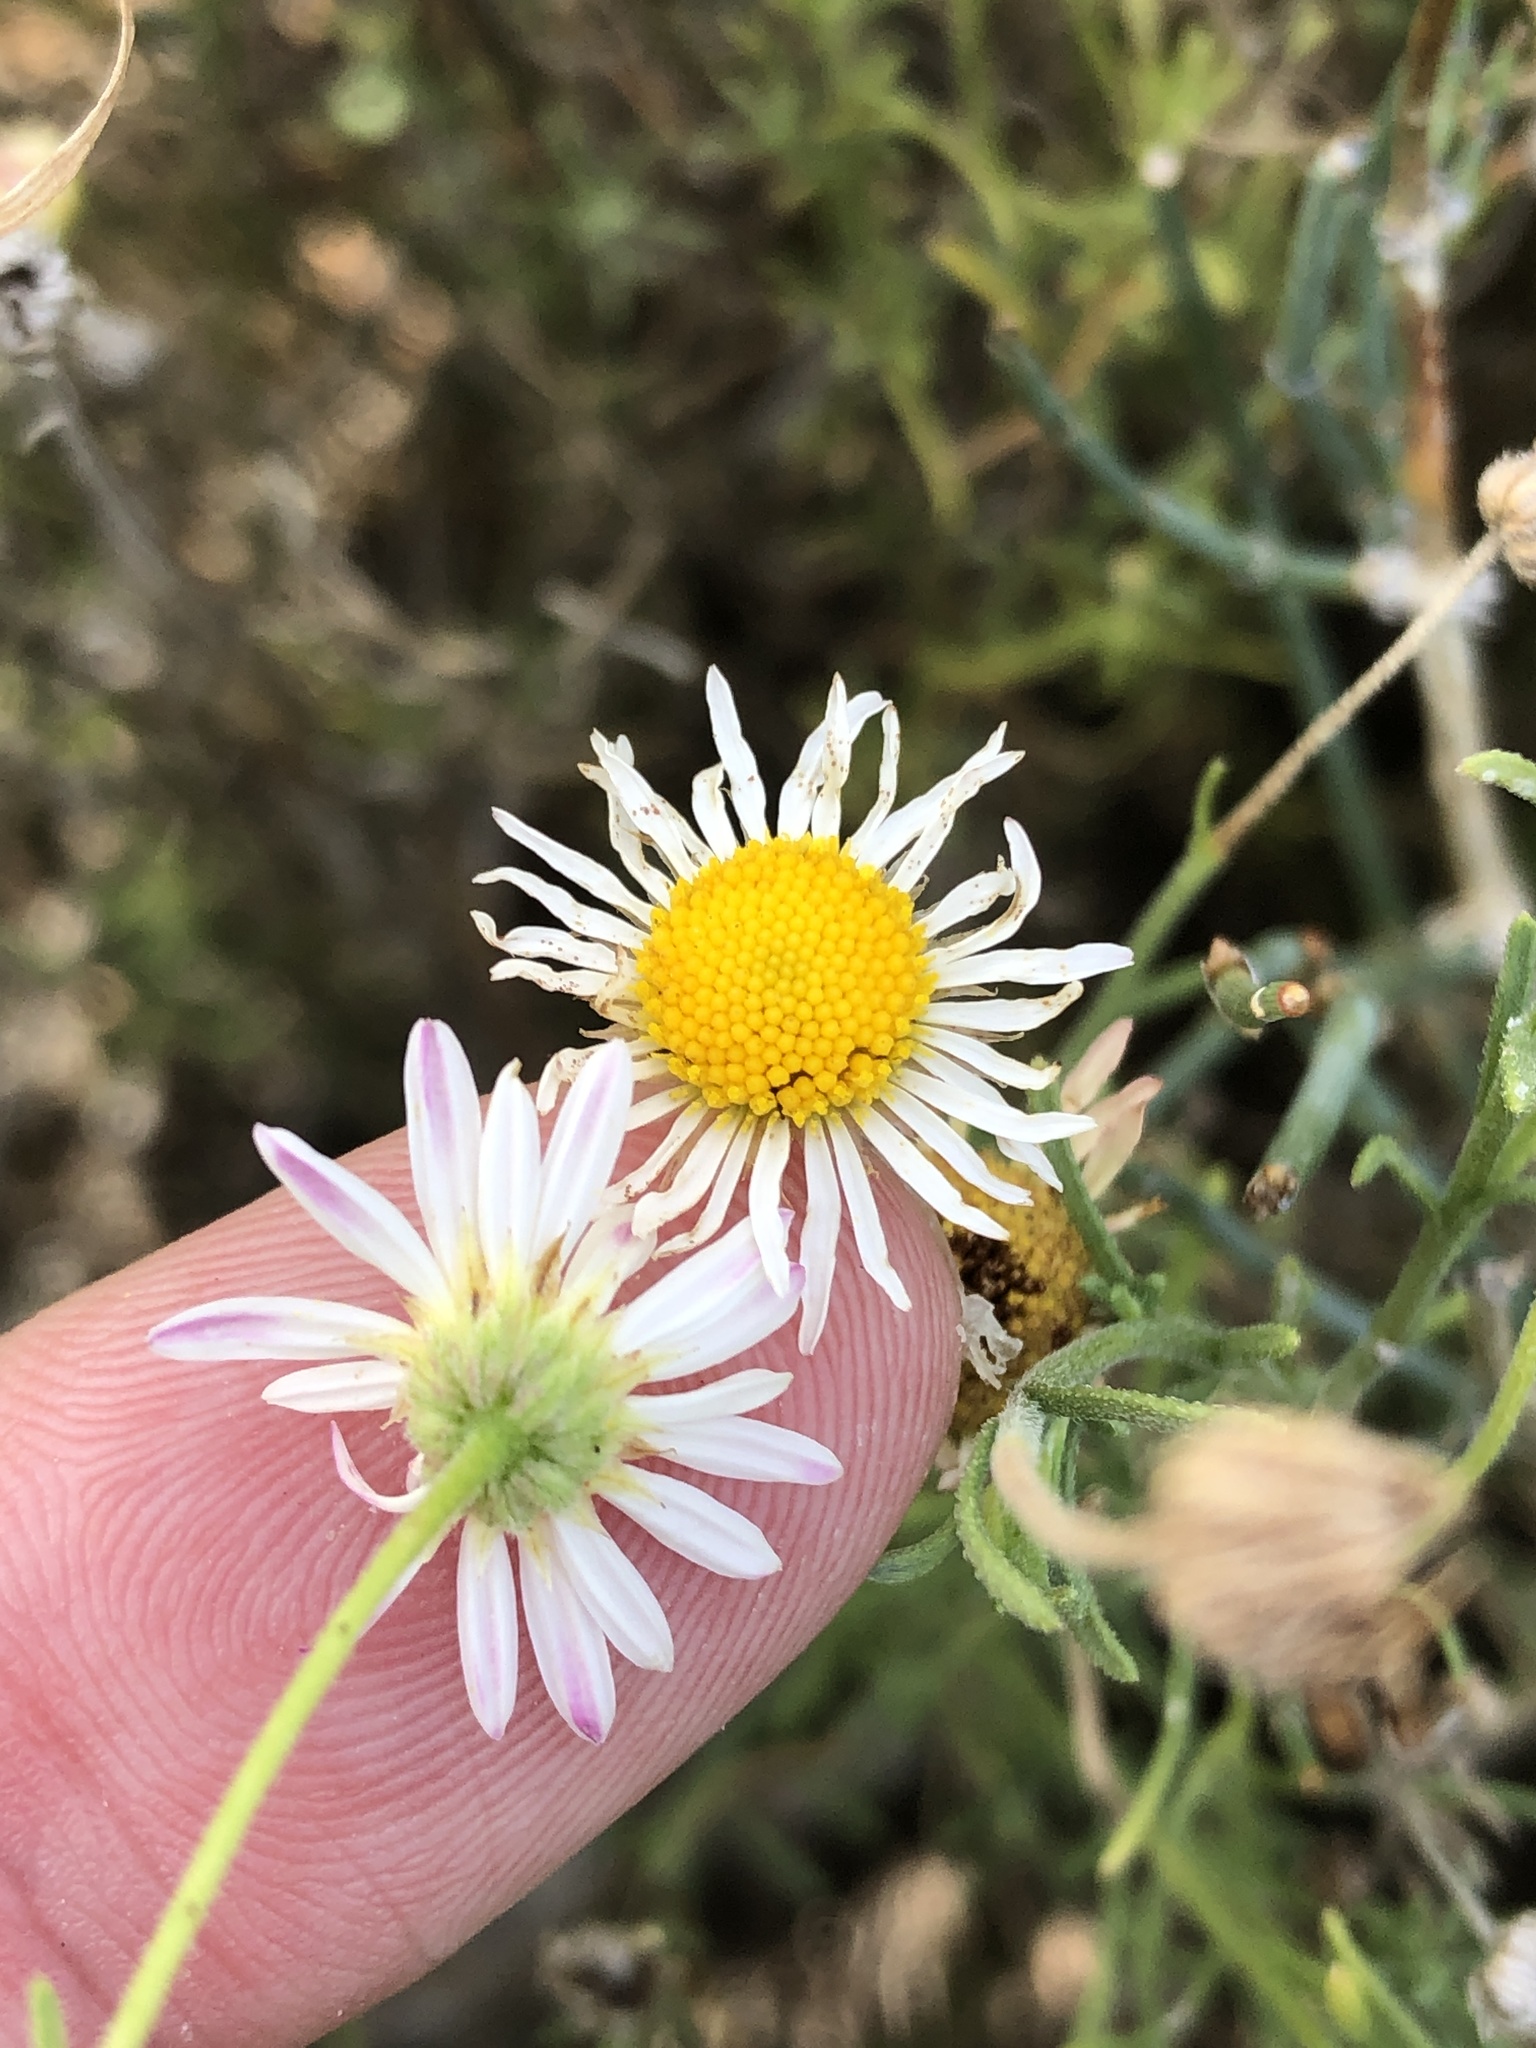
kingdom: Plantae
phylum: Tracheophyta
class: Magnoliopsida
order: Asterales
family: Asteraceae
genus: Aphanostephus
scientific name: Aphanostephus ramosissimus
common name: Plains lazy daisy
